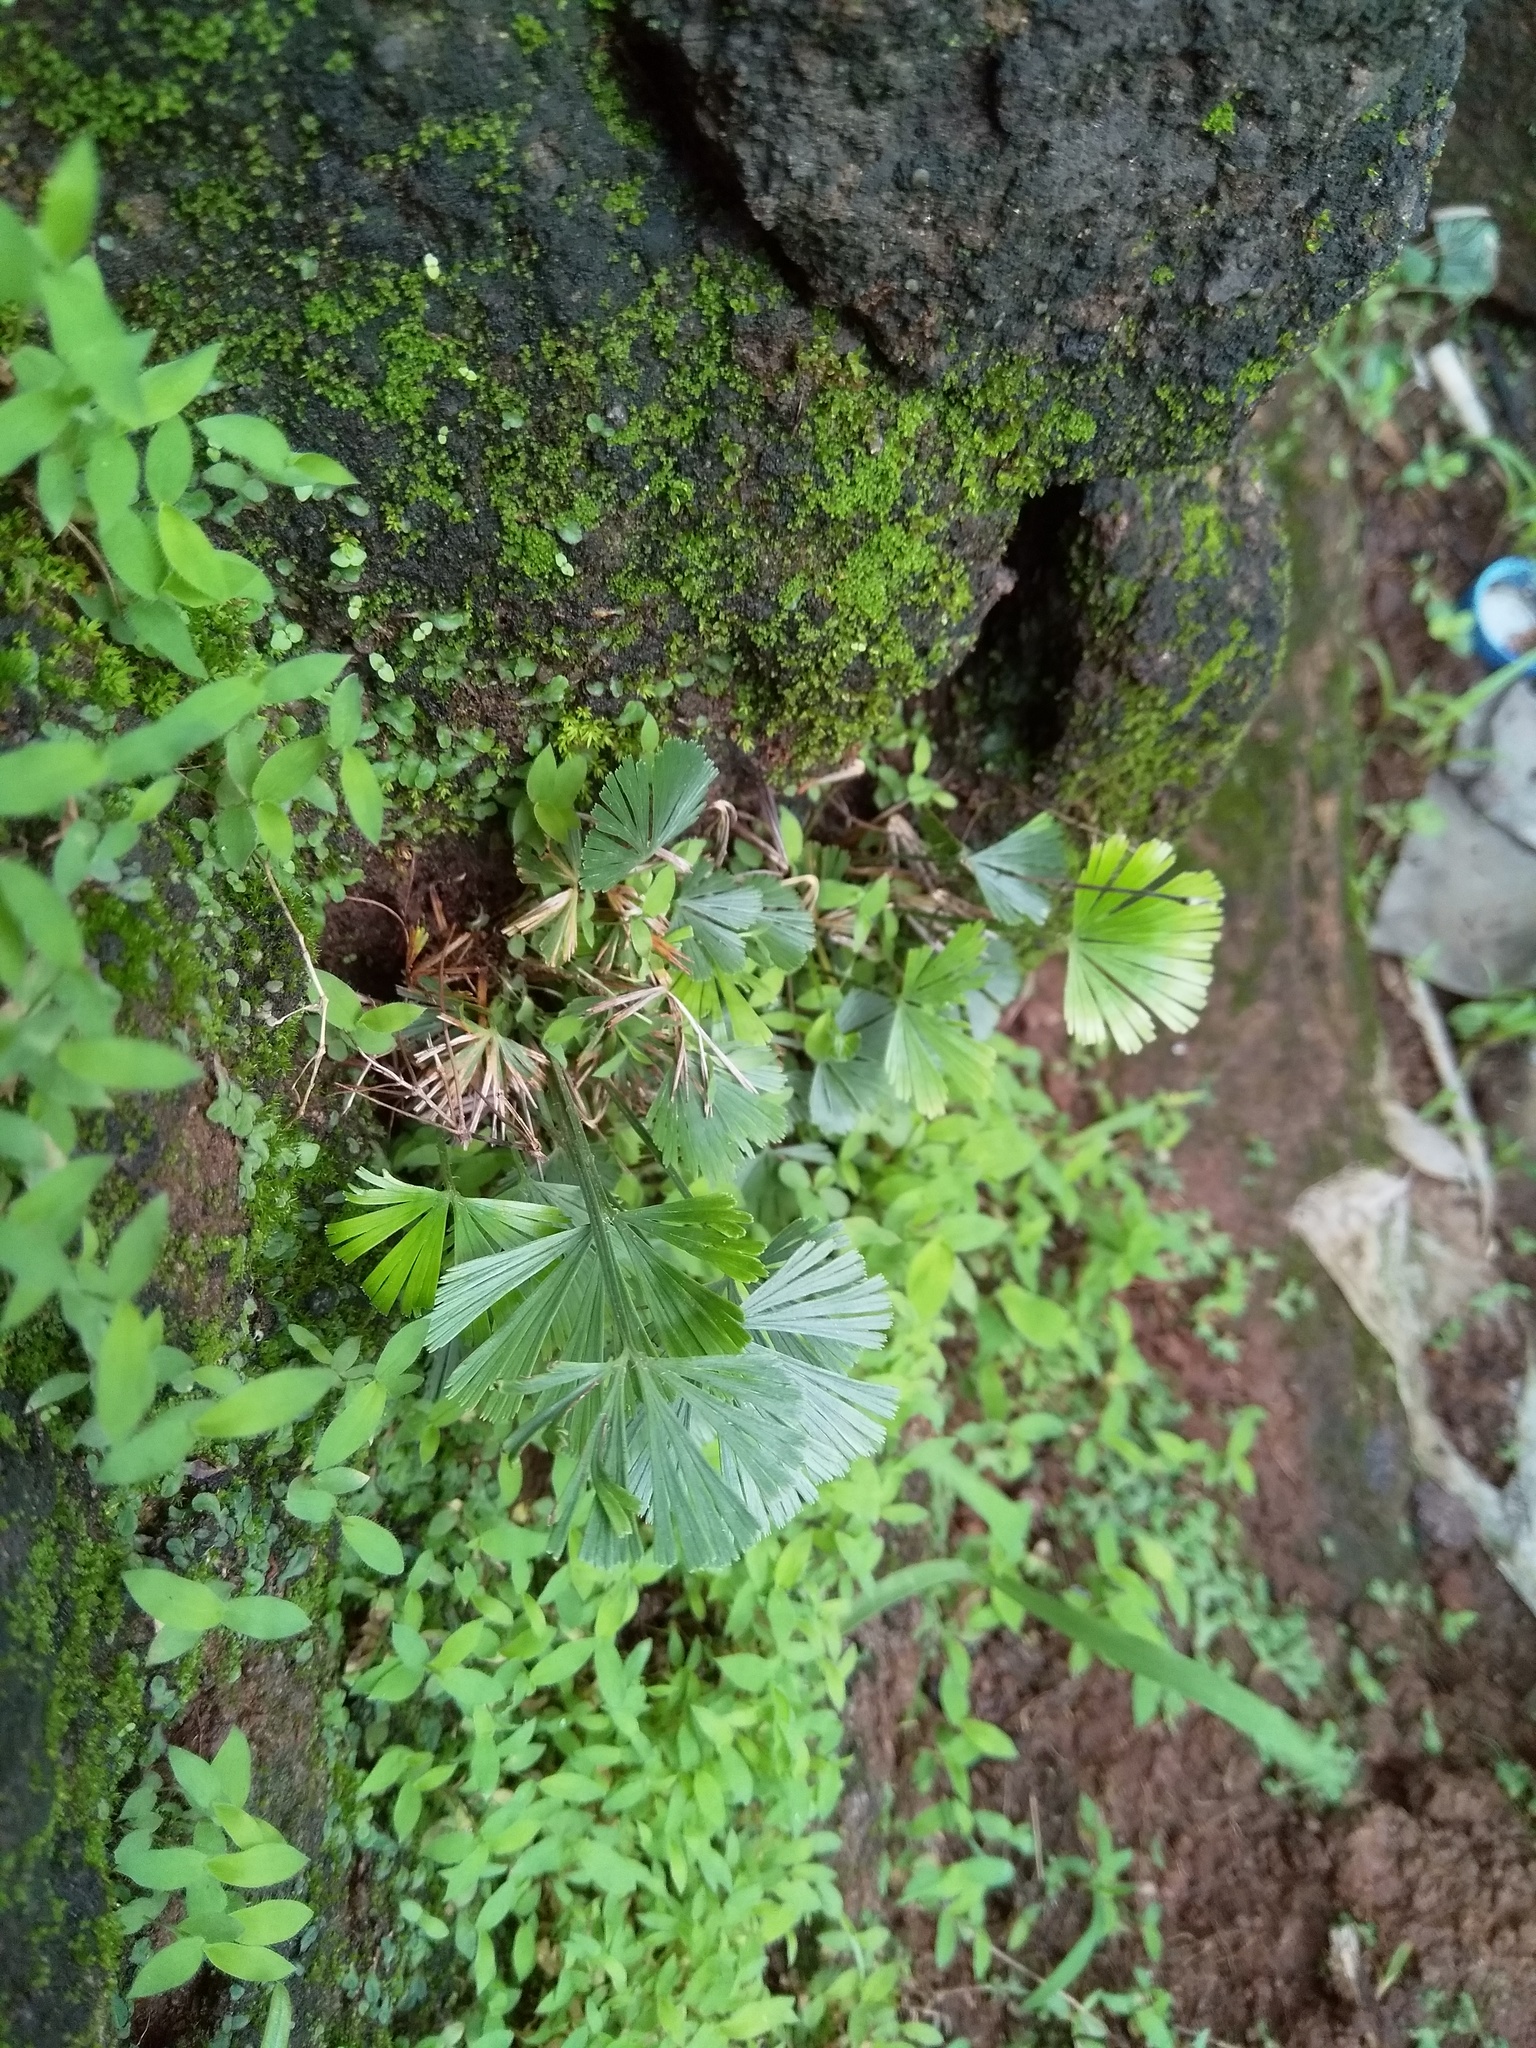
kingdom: Plantae
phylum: Tracheophyta
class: Polypodiopsida
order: Polypodiales
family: Pteridaceae
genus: Actiniopteris
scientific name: Actiniopteris radiata
